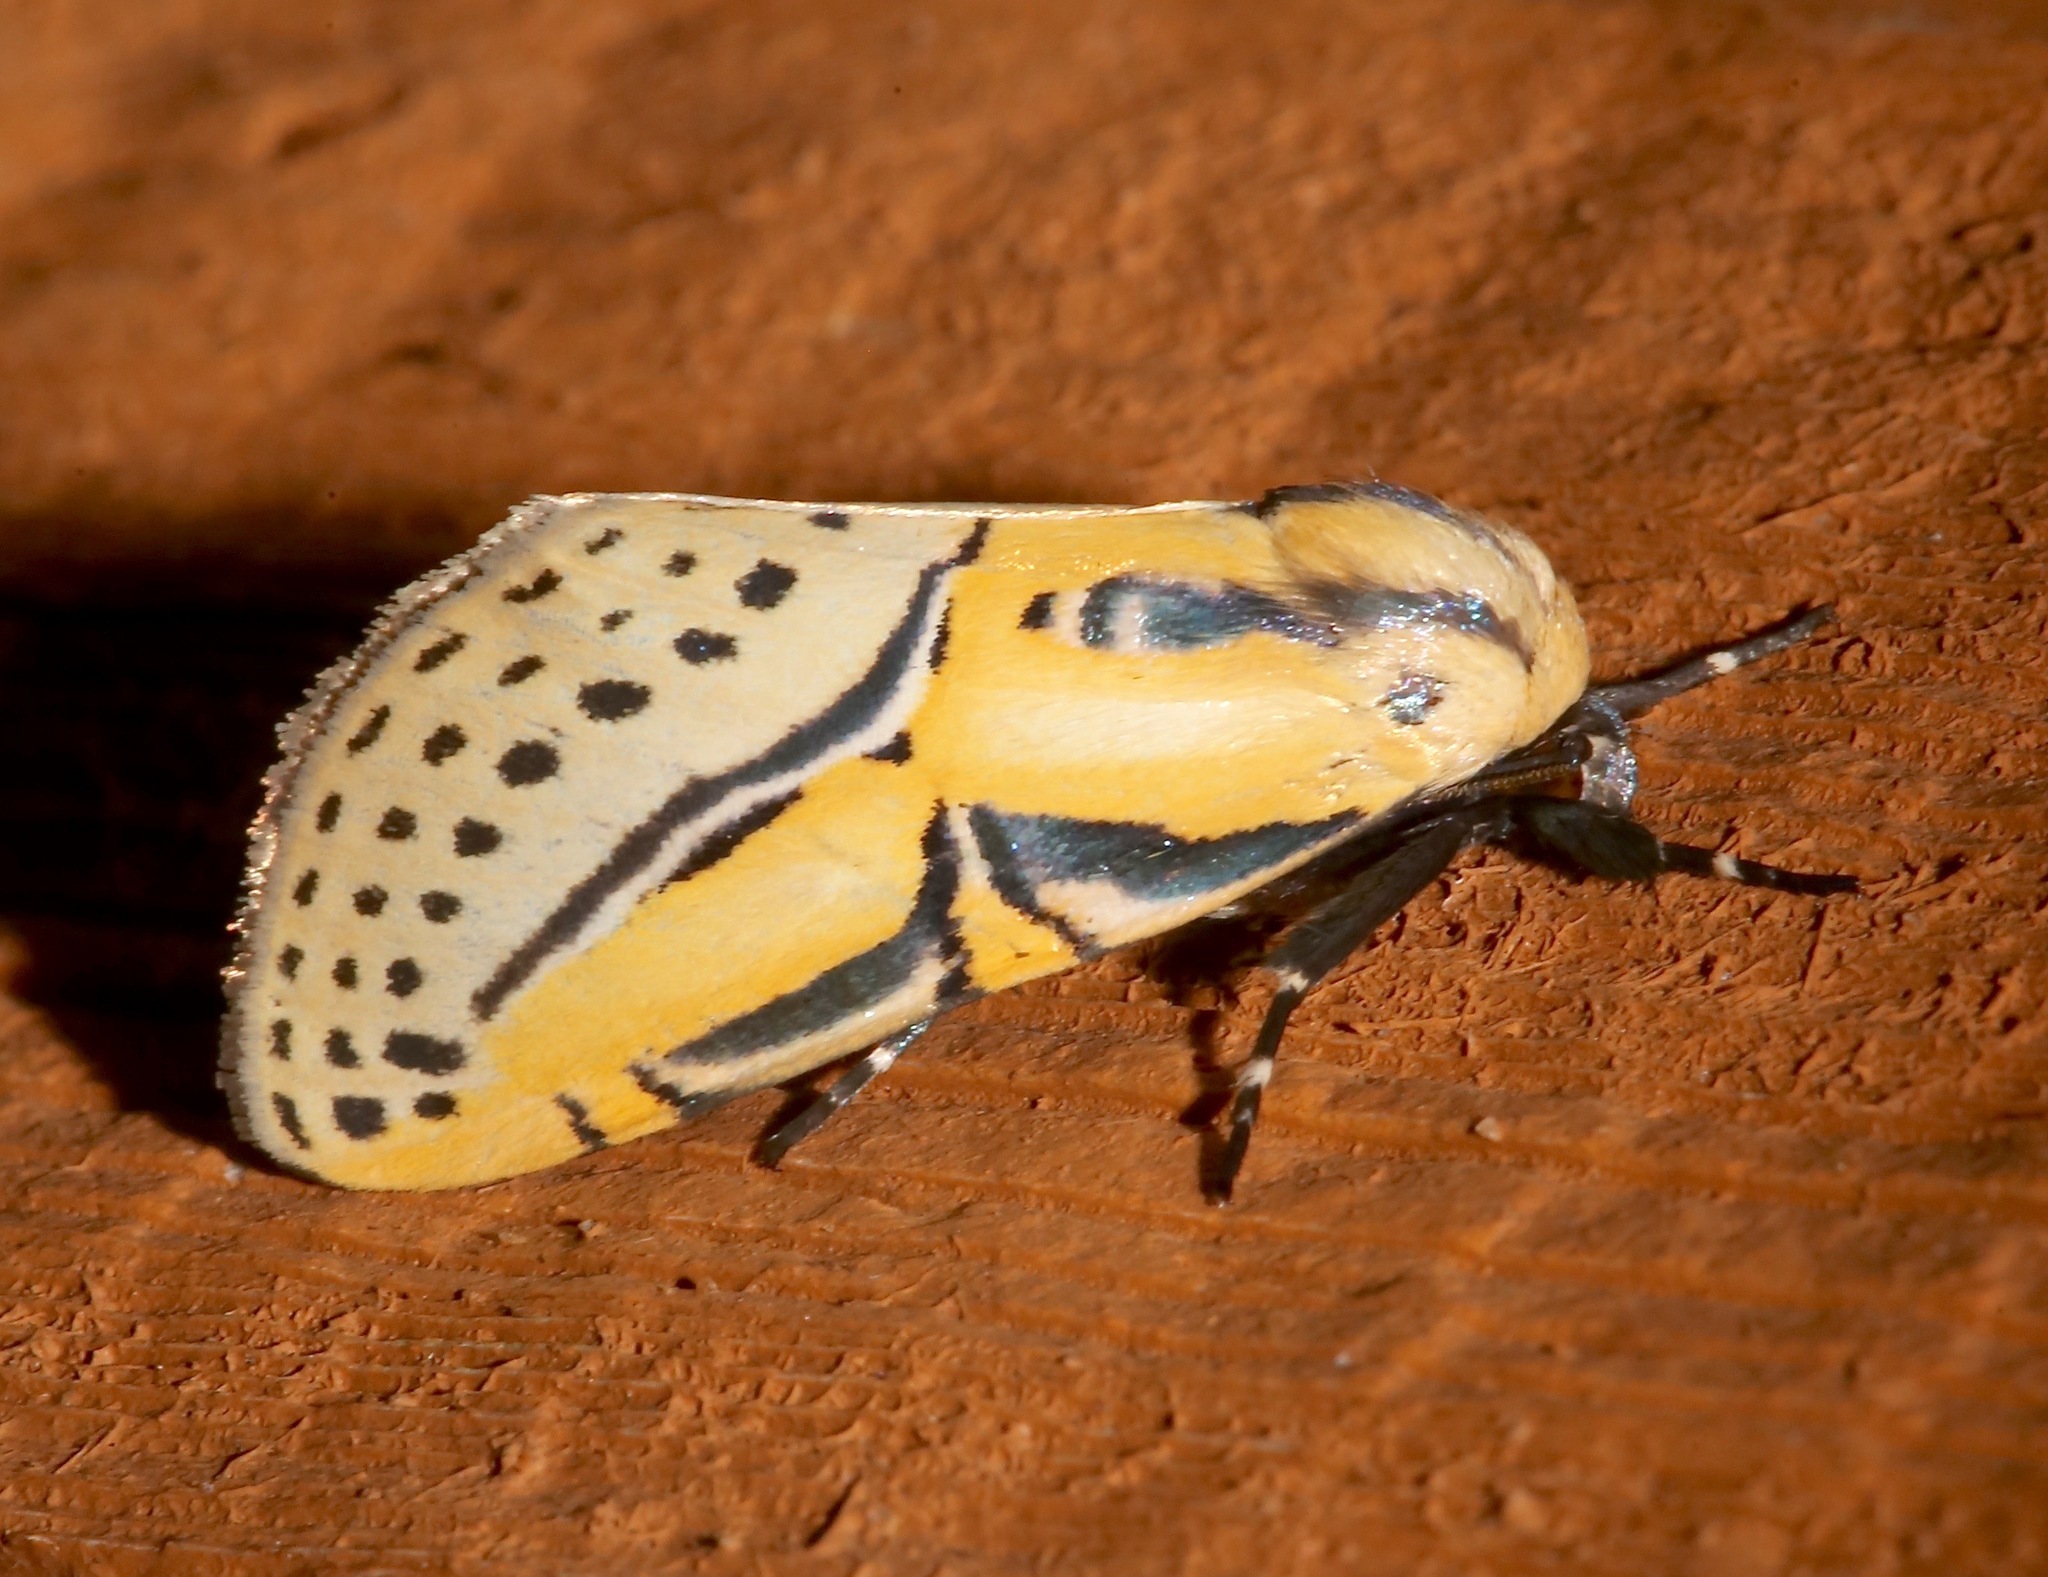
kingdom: Animalia
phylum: Arthropoda
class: Insecta
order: Lepidoptera
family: Erebidae
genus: Diphthera
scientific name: Diphthera festiva
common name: Hieroglyphic moth
